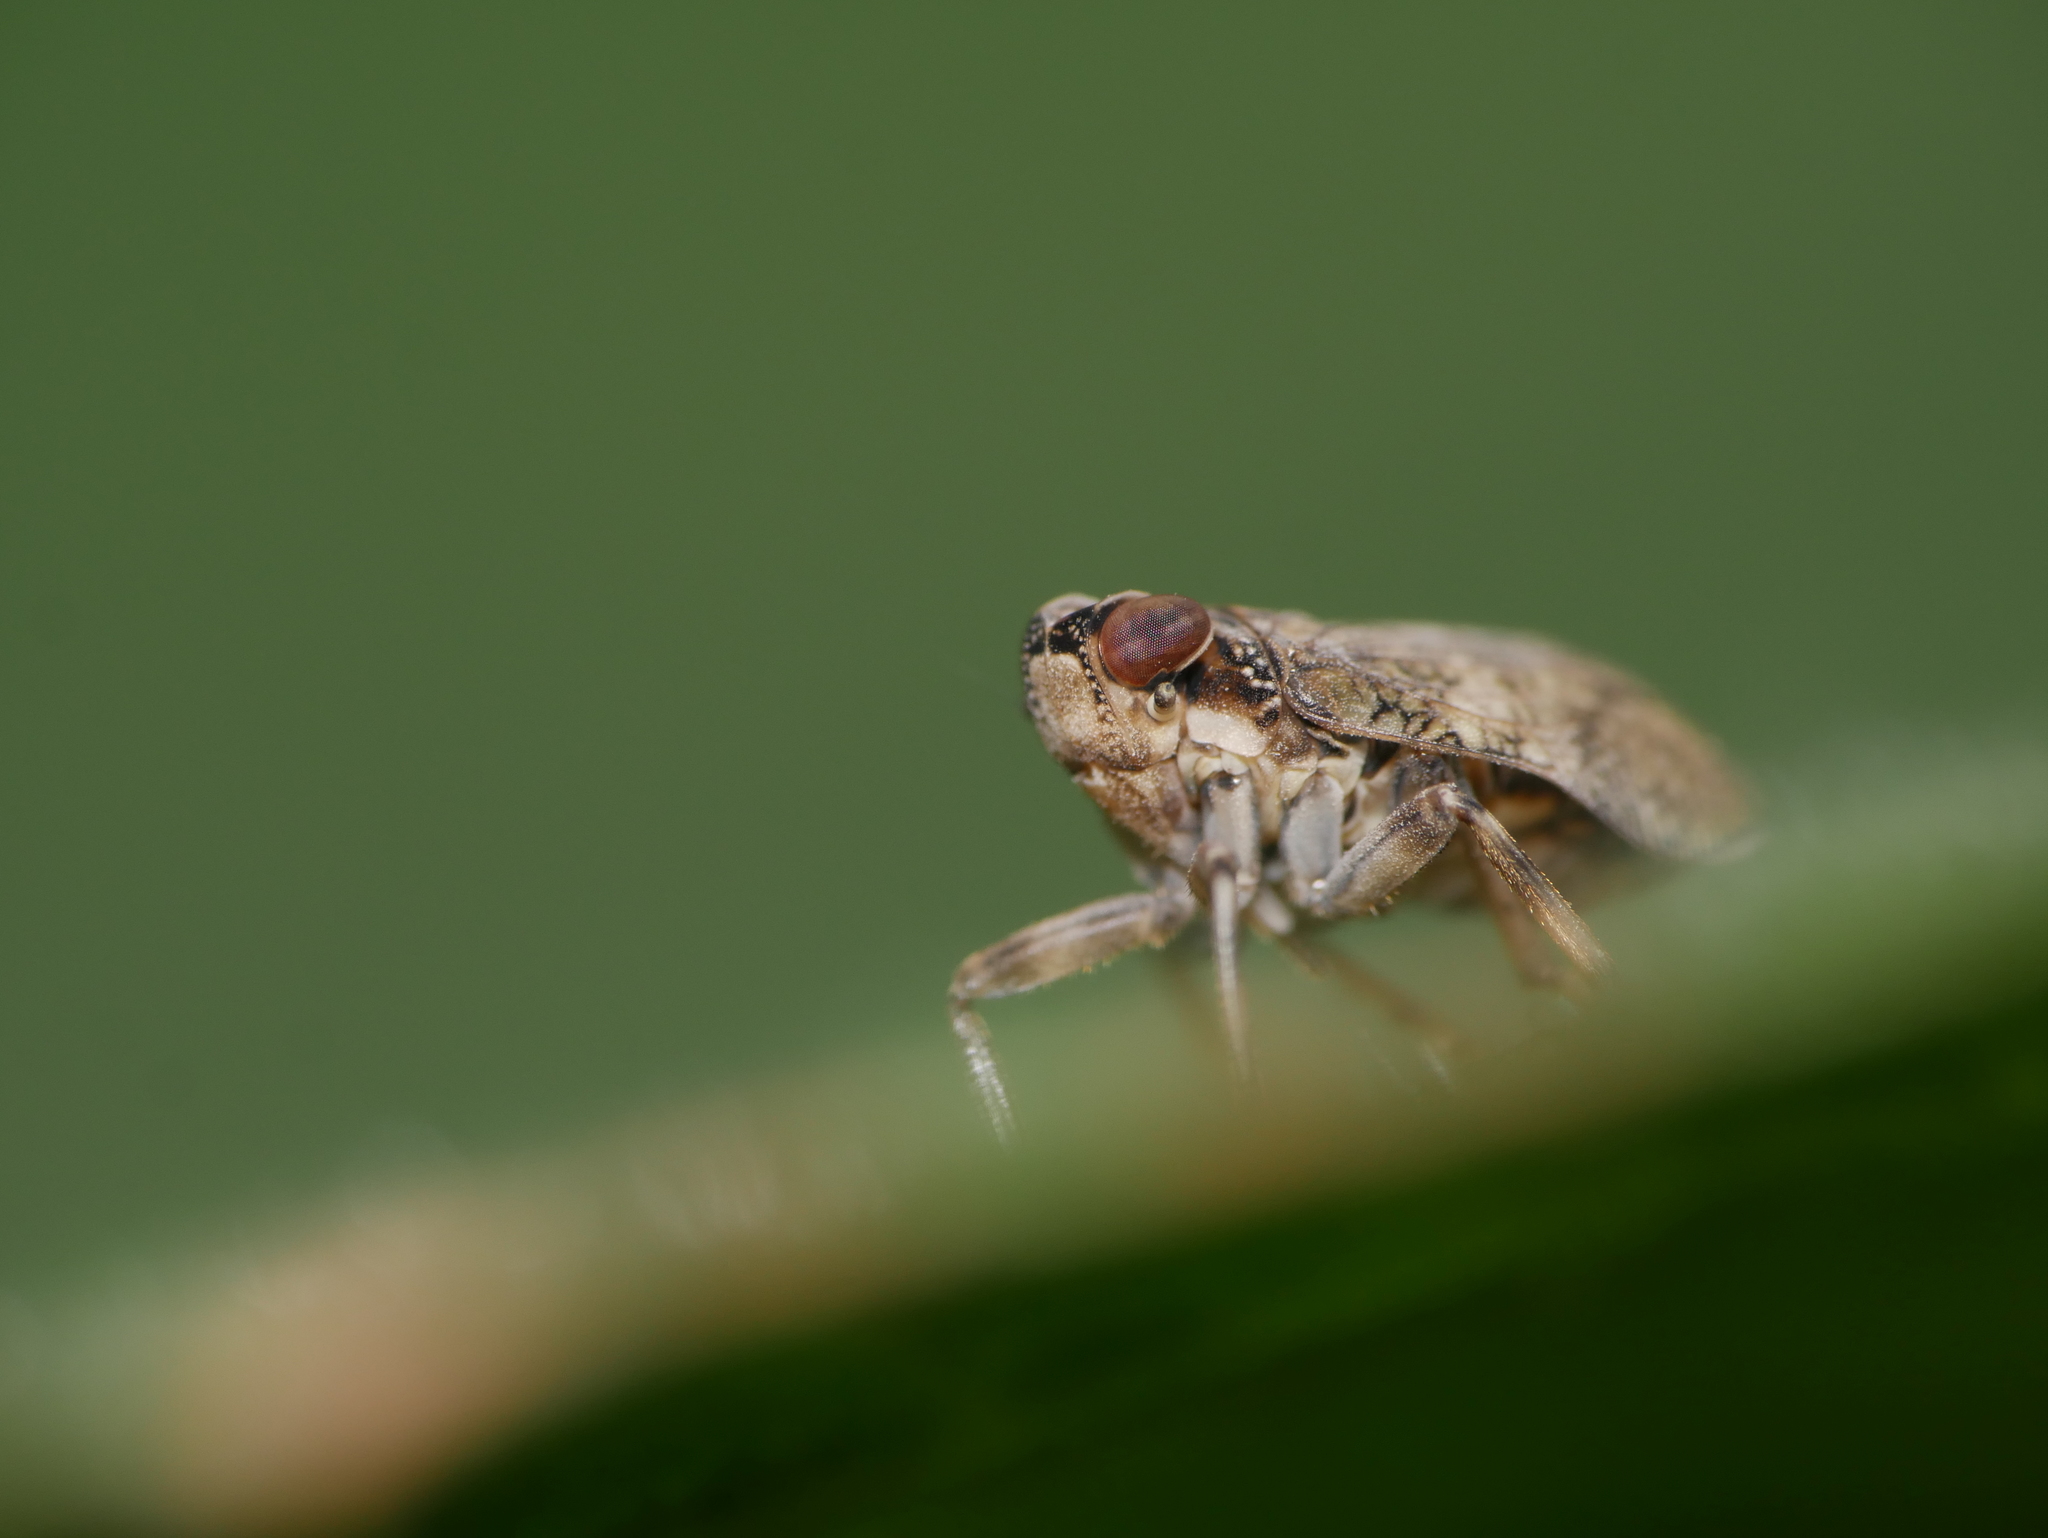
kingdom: Animalia
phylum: Arthropoda
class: Insecta
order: Hemiptera
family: Issidae
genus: Issus
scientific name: Issus coleoptratus
